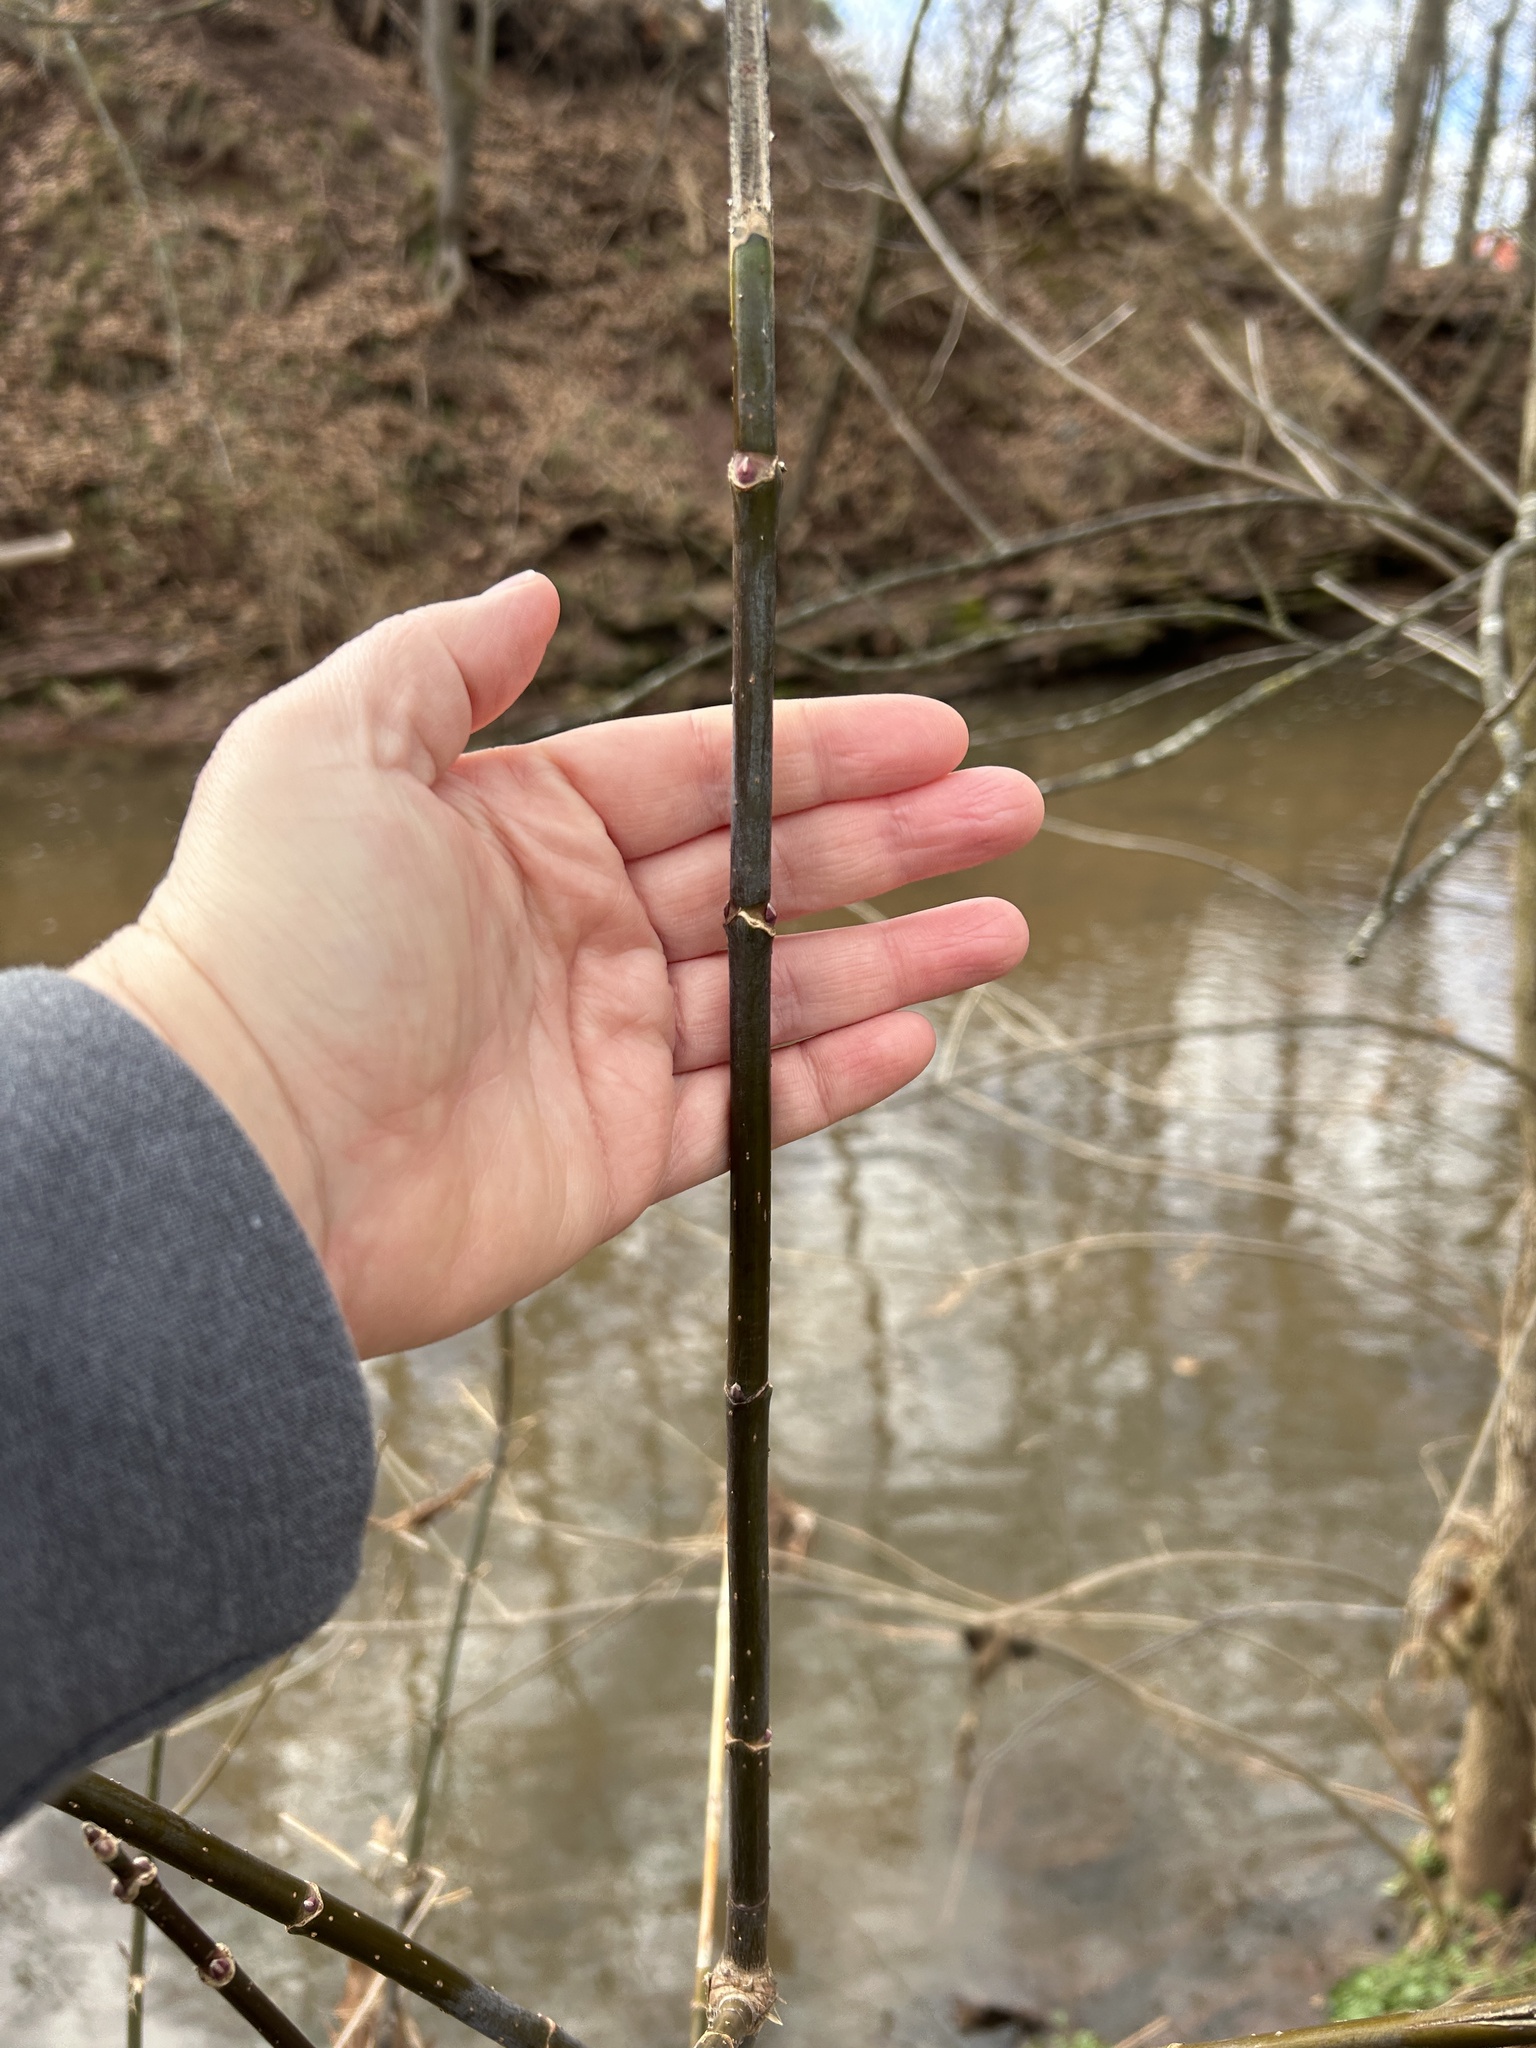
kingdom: Plantae
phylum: Tracheophyta
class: Magnoliopsida
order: Sapindales
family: Sapindaceae
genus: Acer
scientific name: Acer negundo
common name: Ashleaf maple
